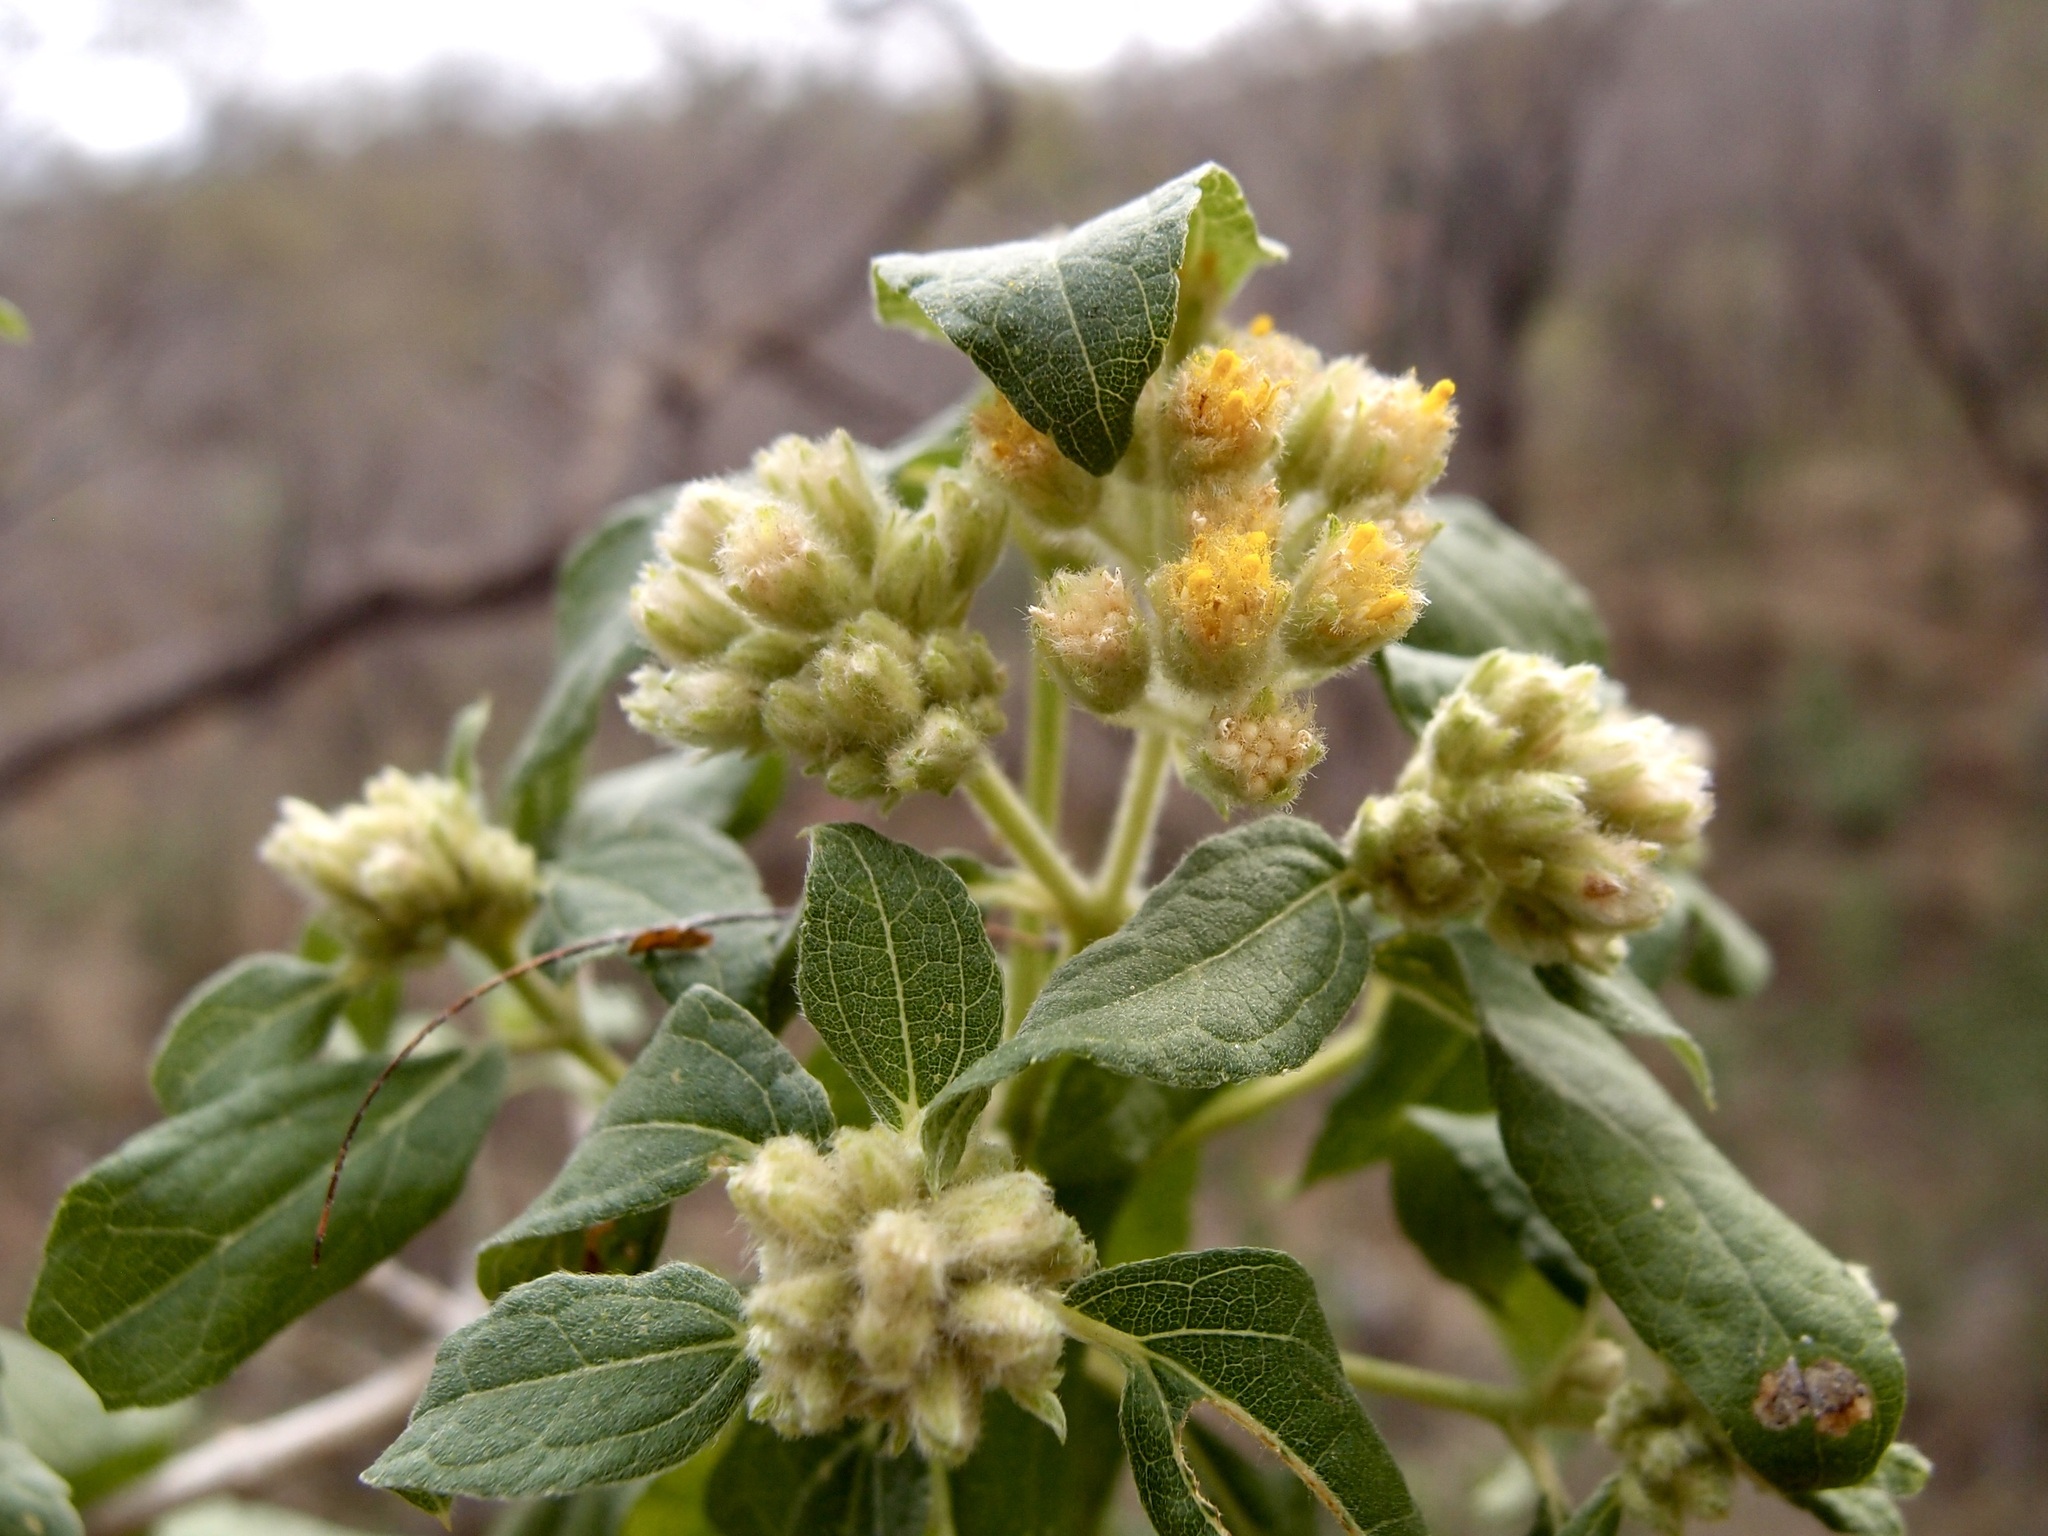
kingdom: Plantae
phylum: Tracheophyta
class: Magnoliopsida
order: Asterales
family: Asteraceae
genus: Montanoa
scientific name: Montanoa tomentosa
